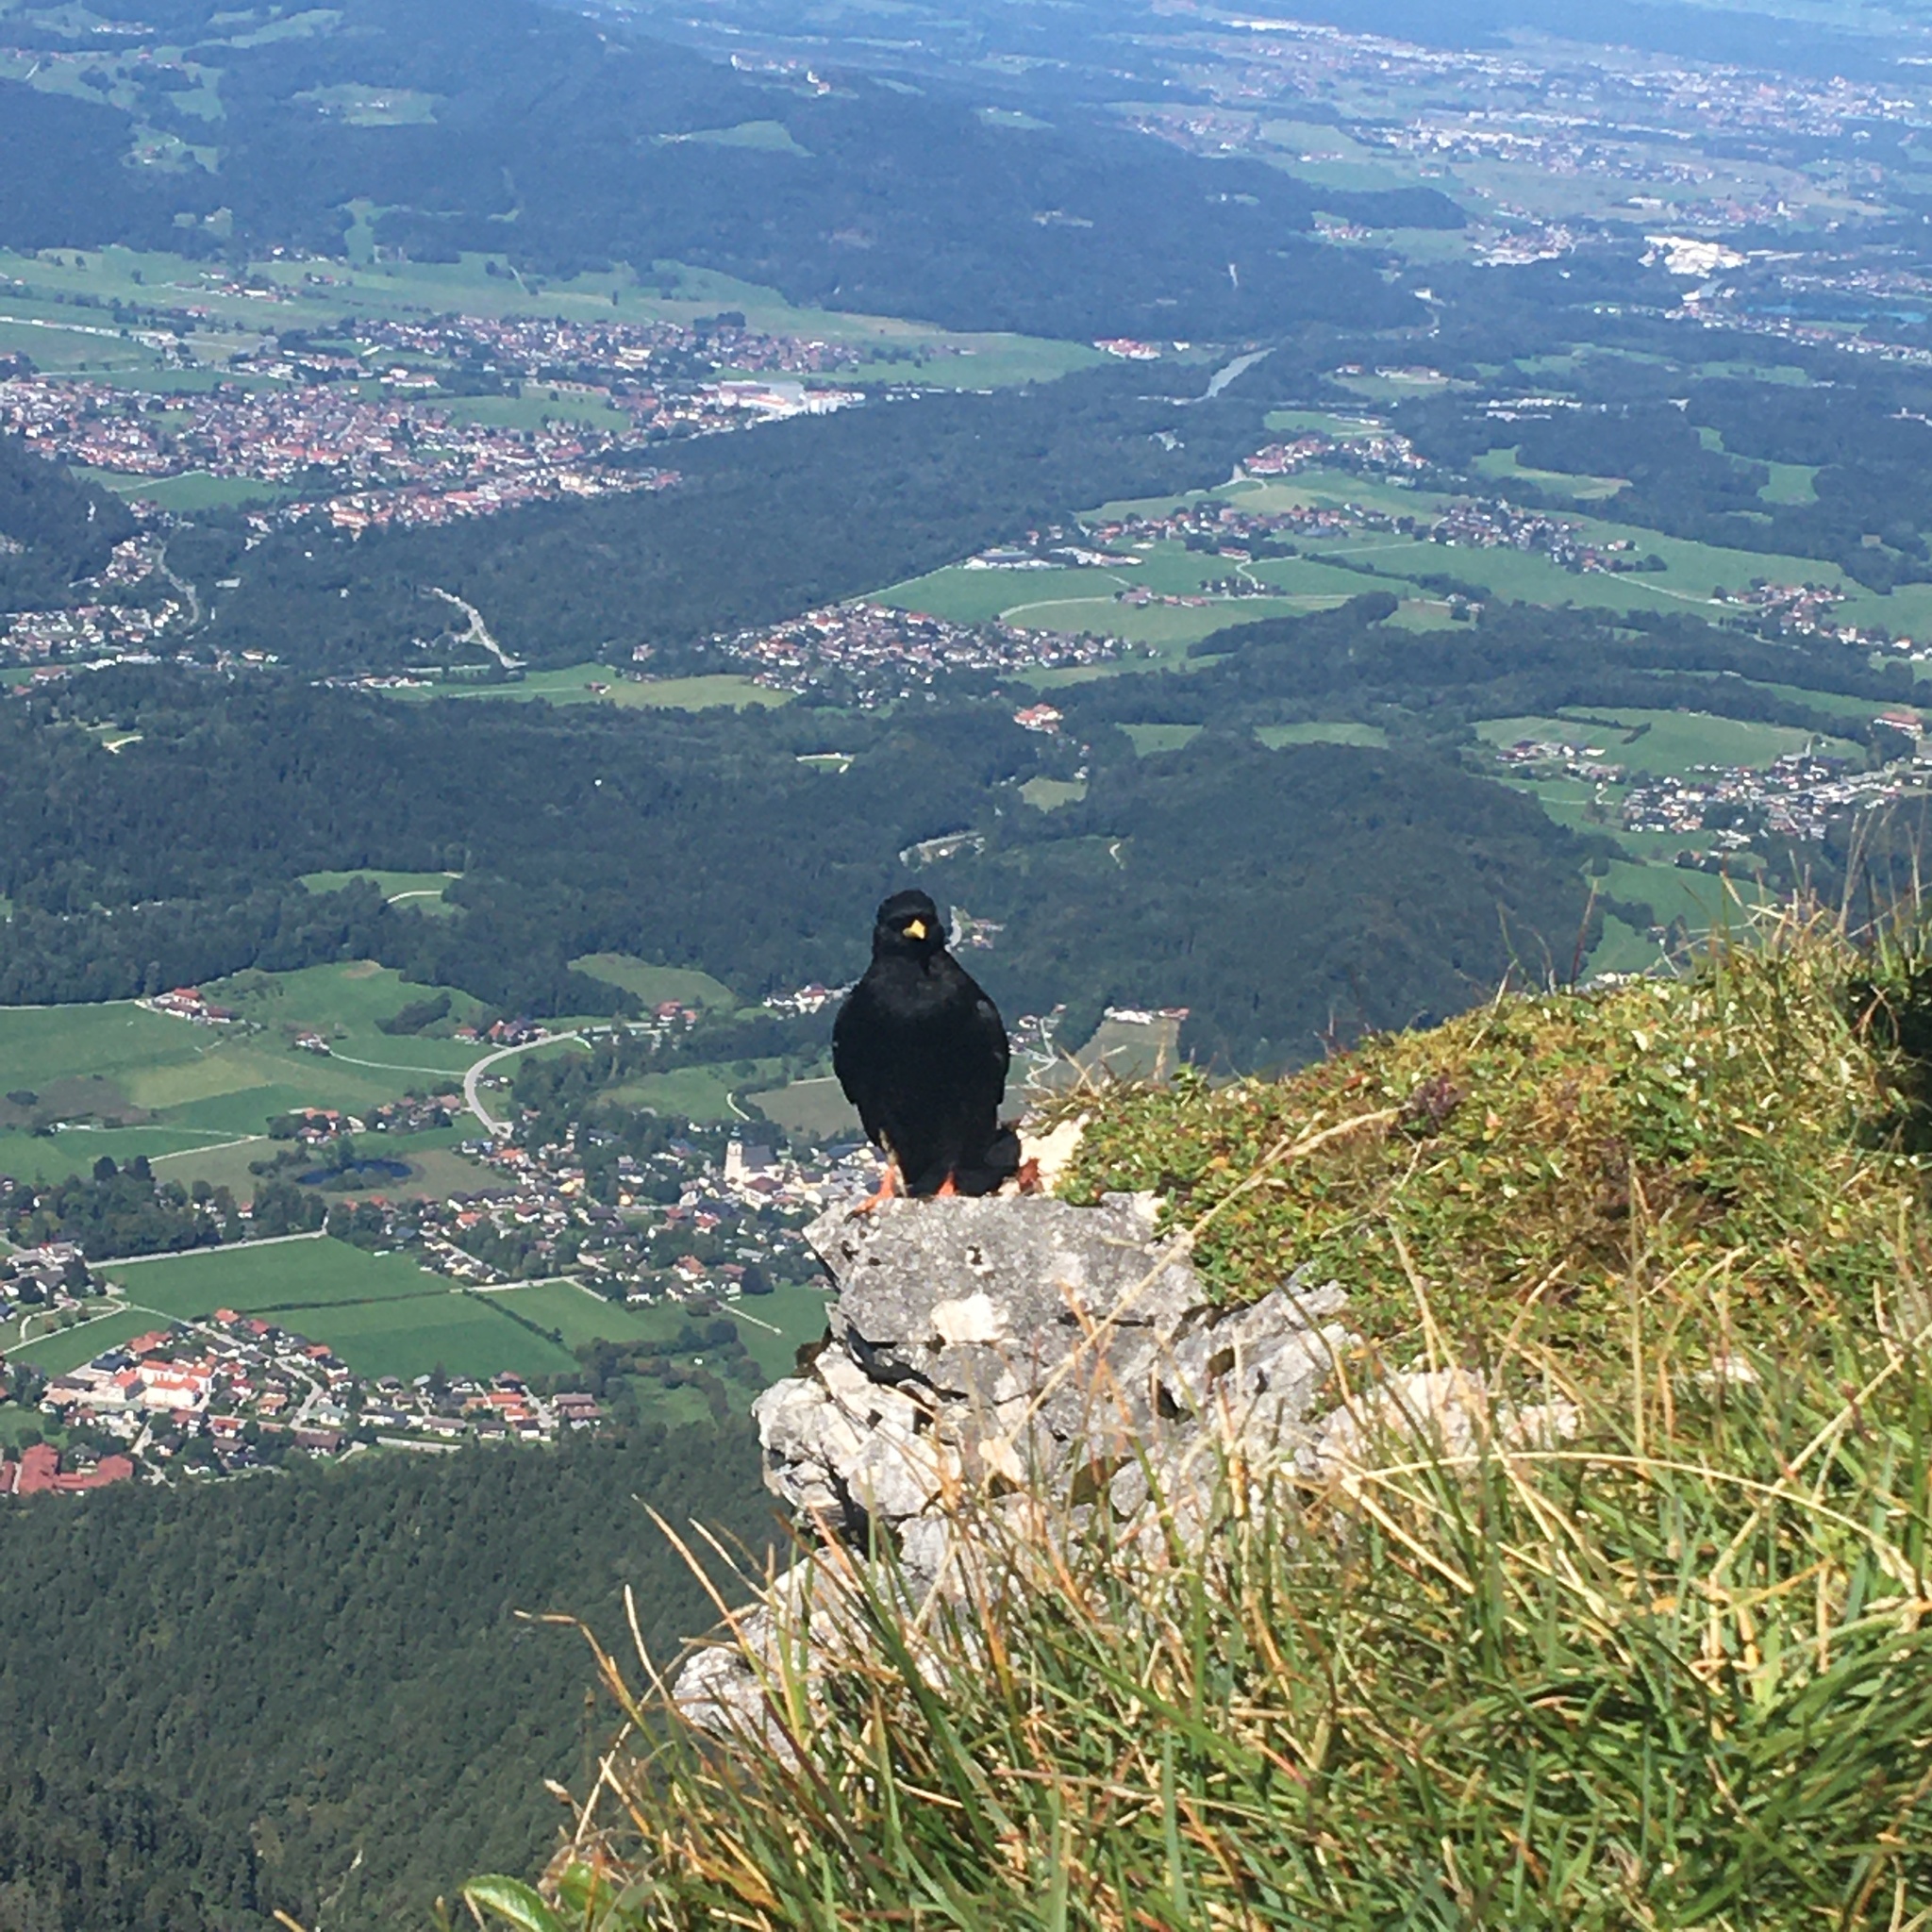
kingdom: Animalia
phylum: Chordata
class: Aves
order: Passeriformes
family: Corvidae
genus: Pyrrhocorax
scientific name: Pyrrhocorax graculus
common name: Alpine chough
